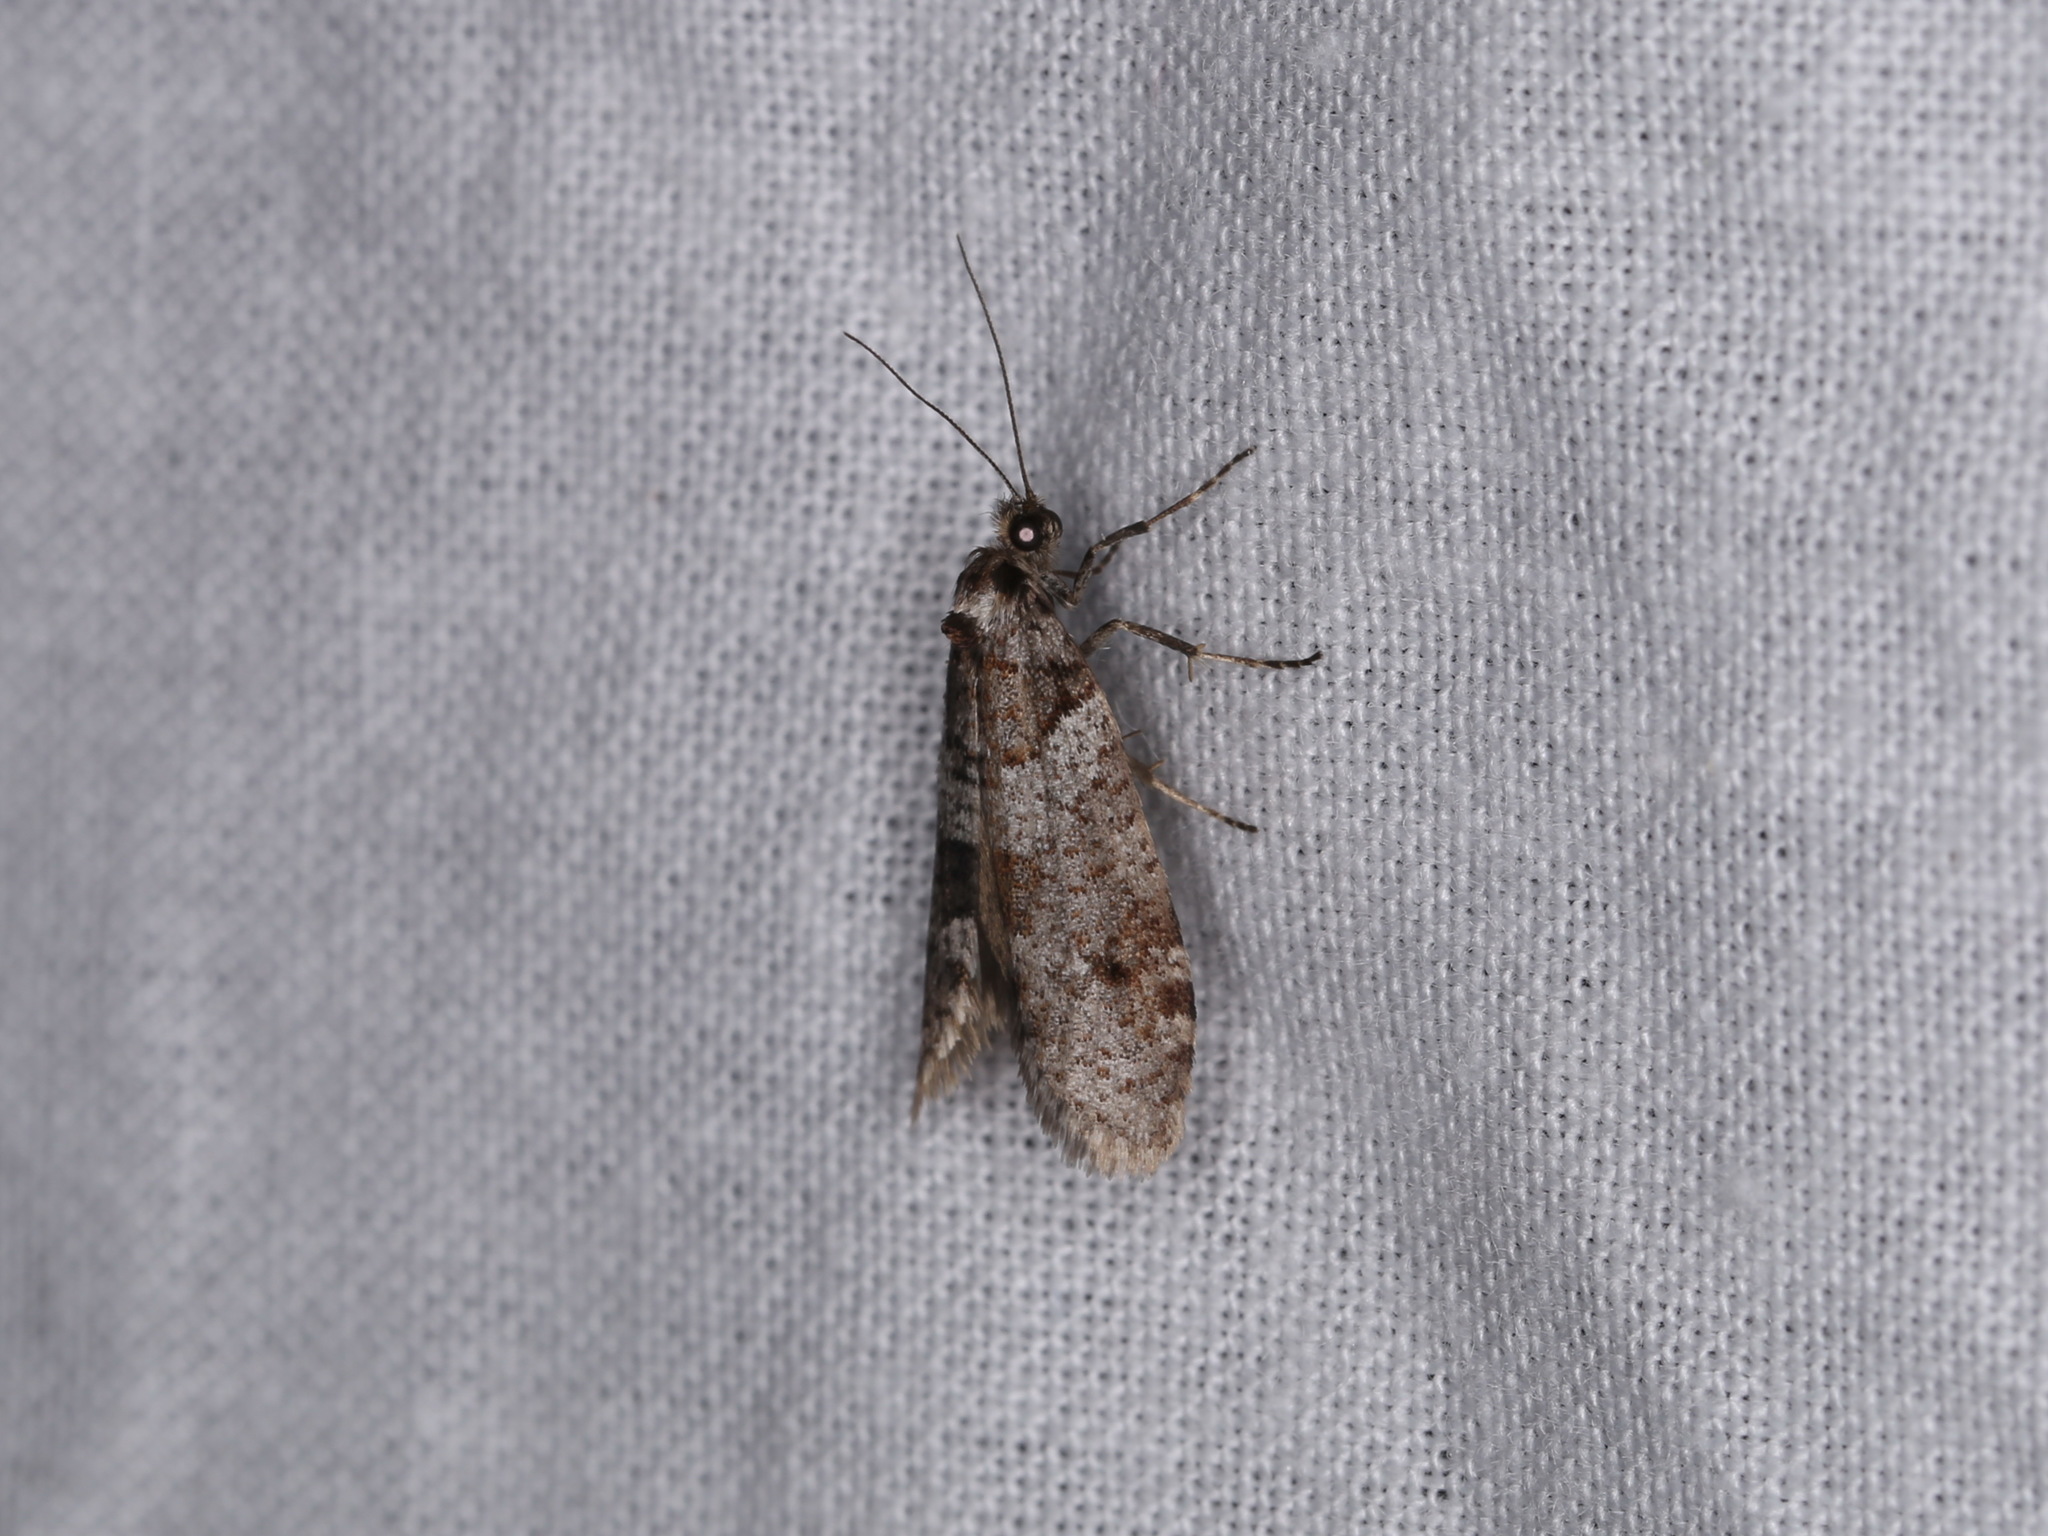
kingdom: Animalia
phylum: Arthropoda
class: Insecta
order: Lepidoptera
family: Psychidae
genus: Lepidoscia
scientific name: Lepidoscia heliochares
